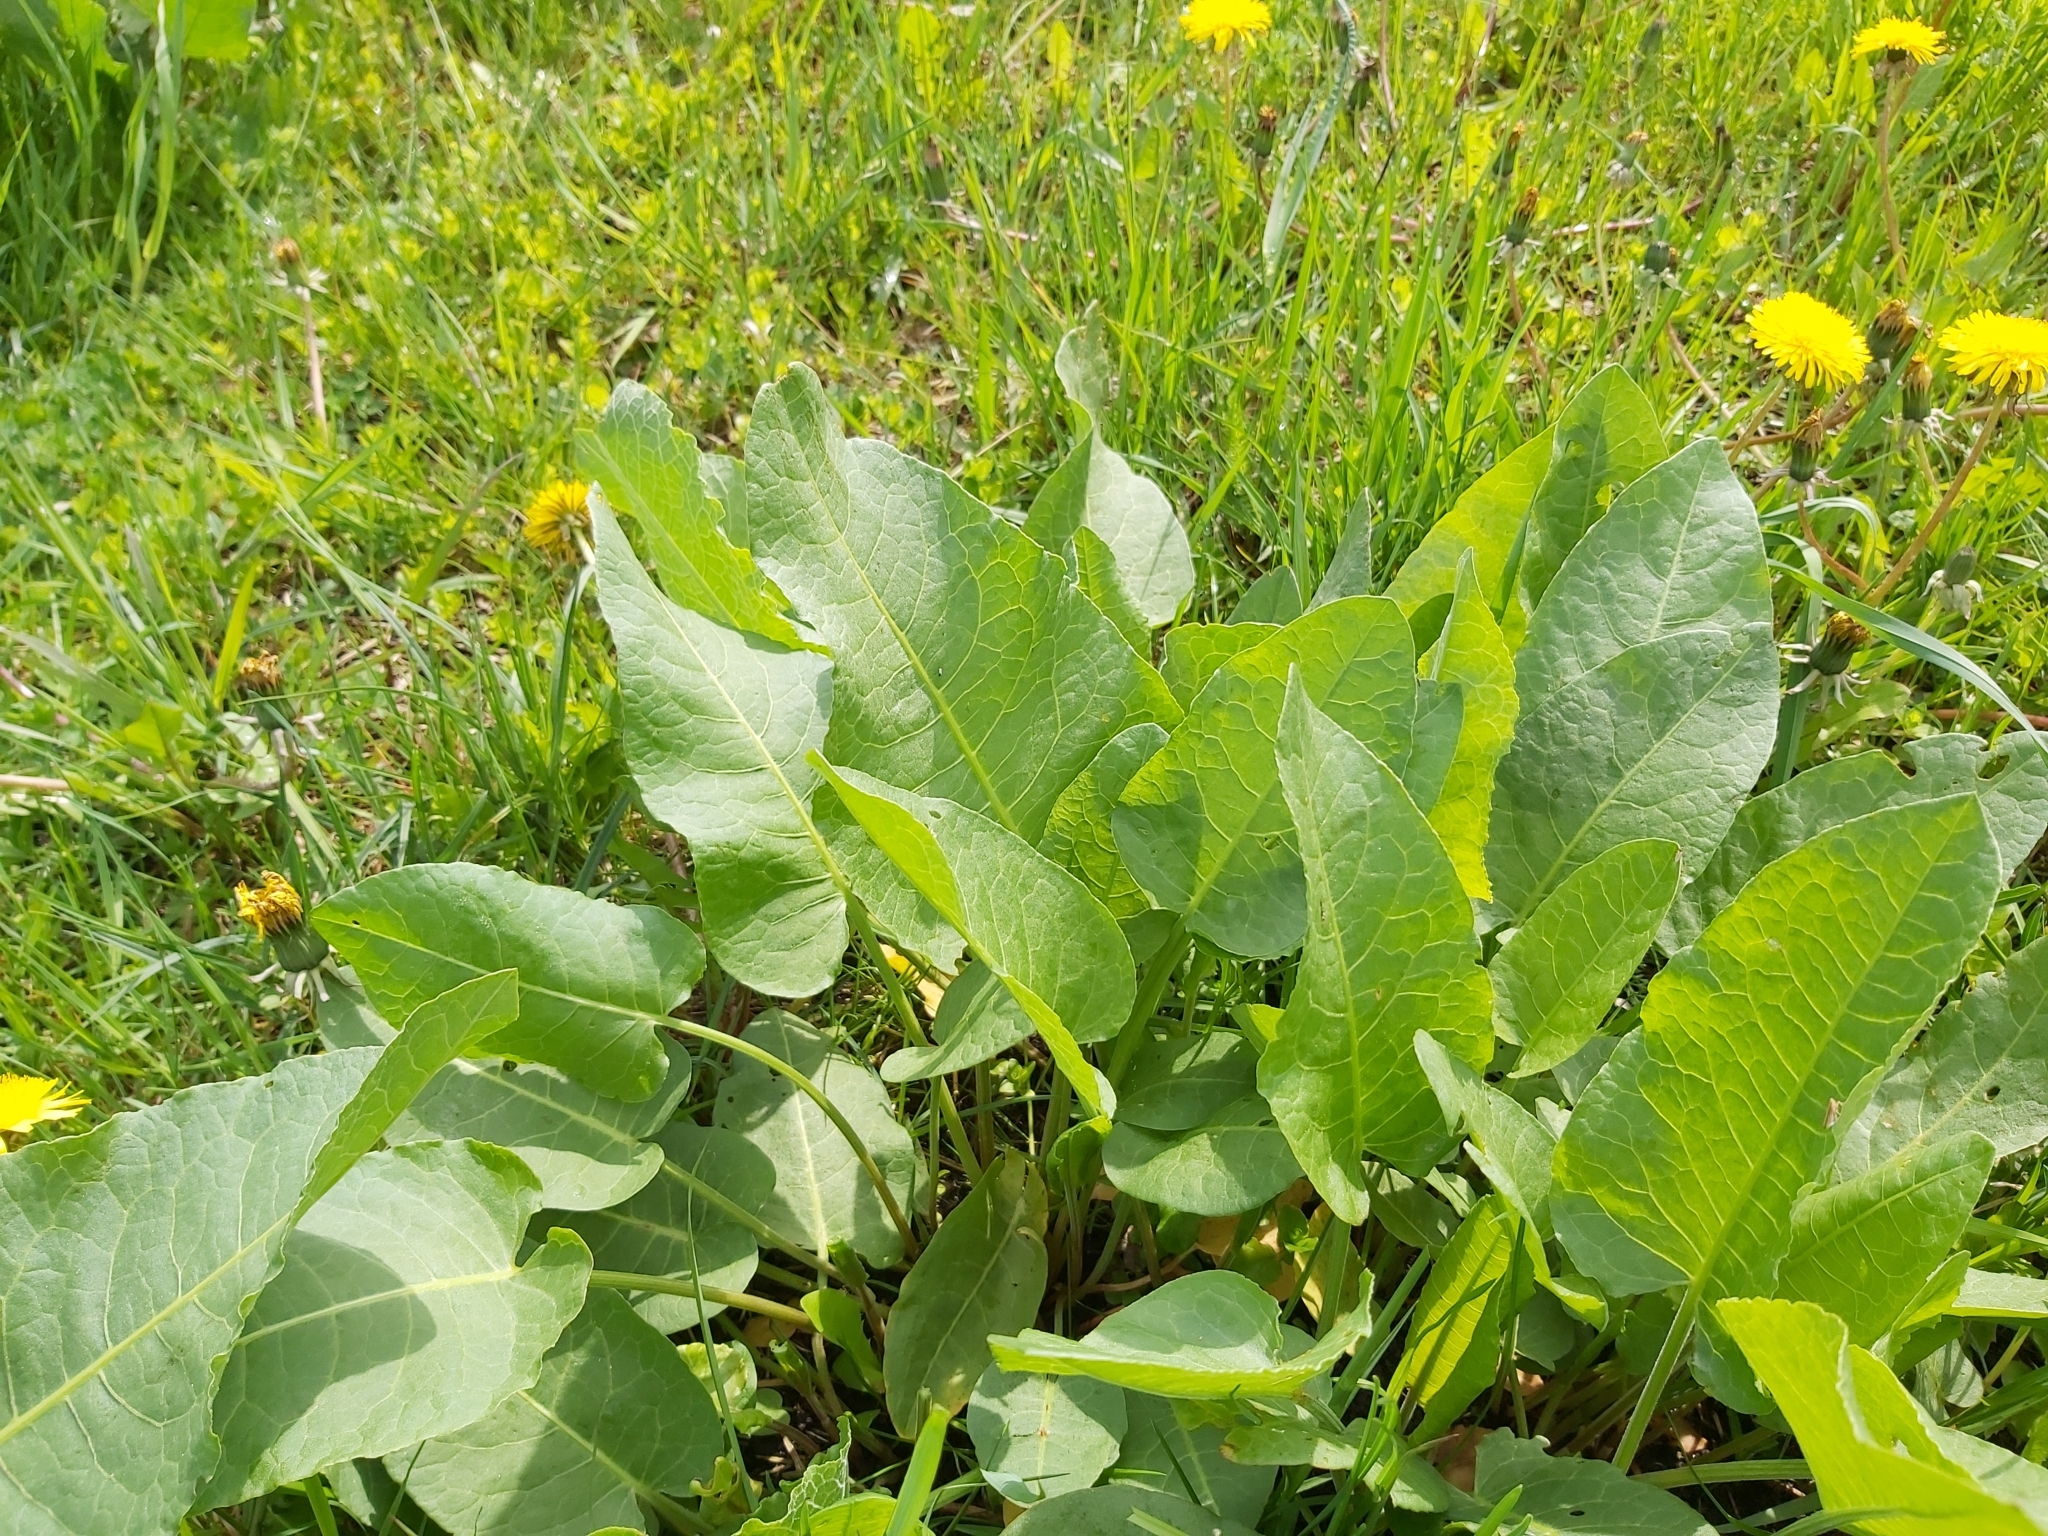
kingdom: Plantae
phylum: Tracheophyta
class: Magnoliopsida
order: Caryophyllales
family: Polygonaceae
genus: Rumex
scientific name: Rumex confertus
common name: Russian dock
